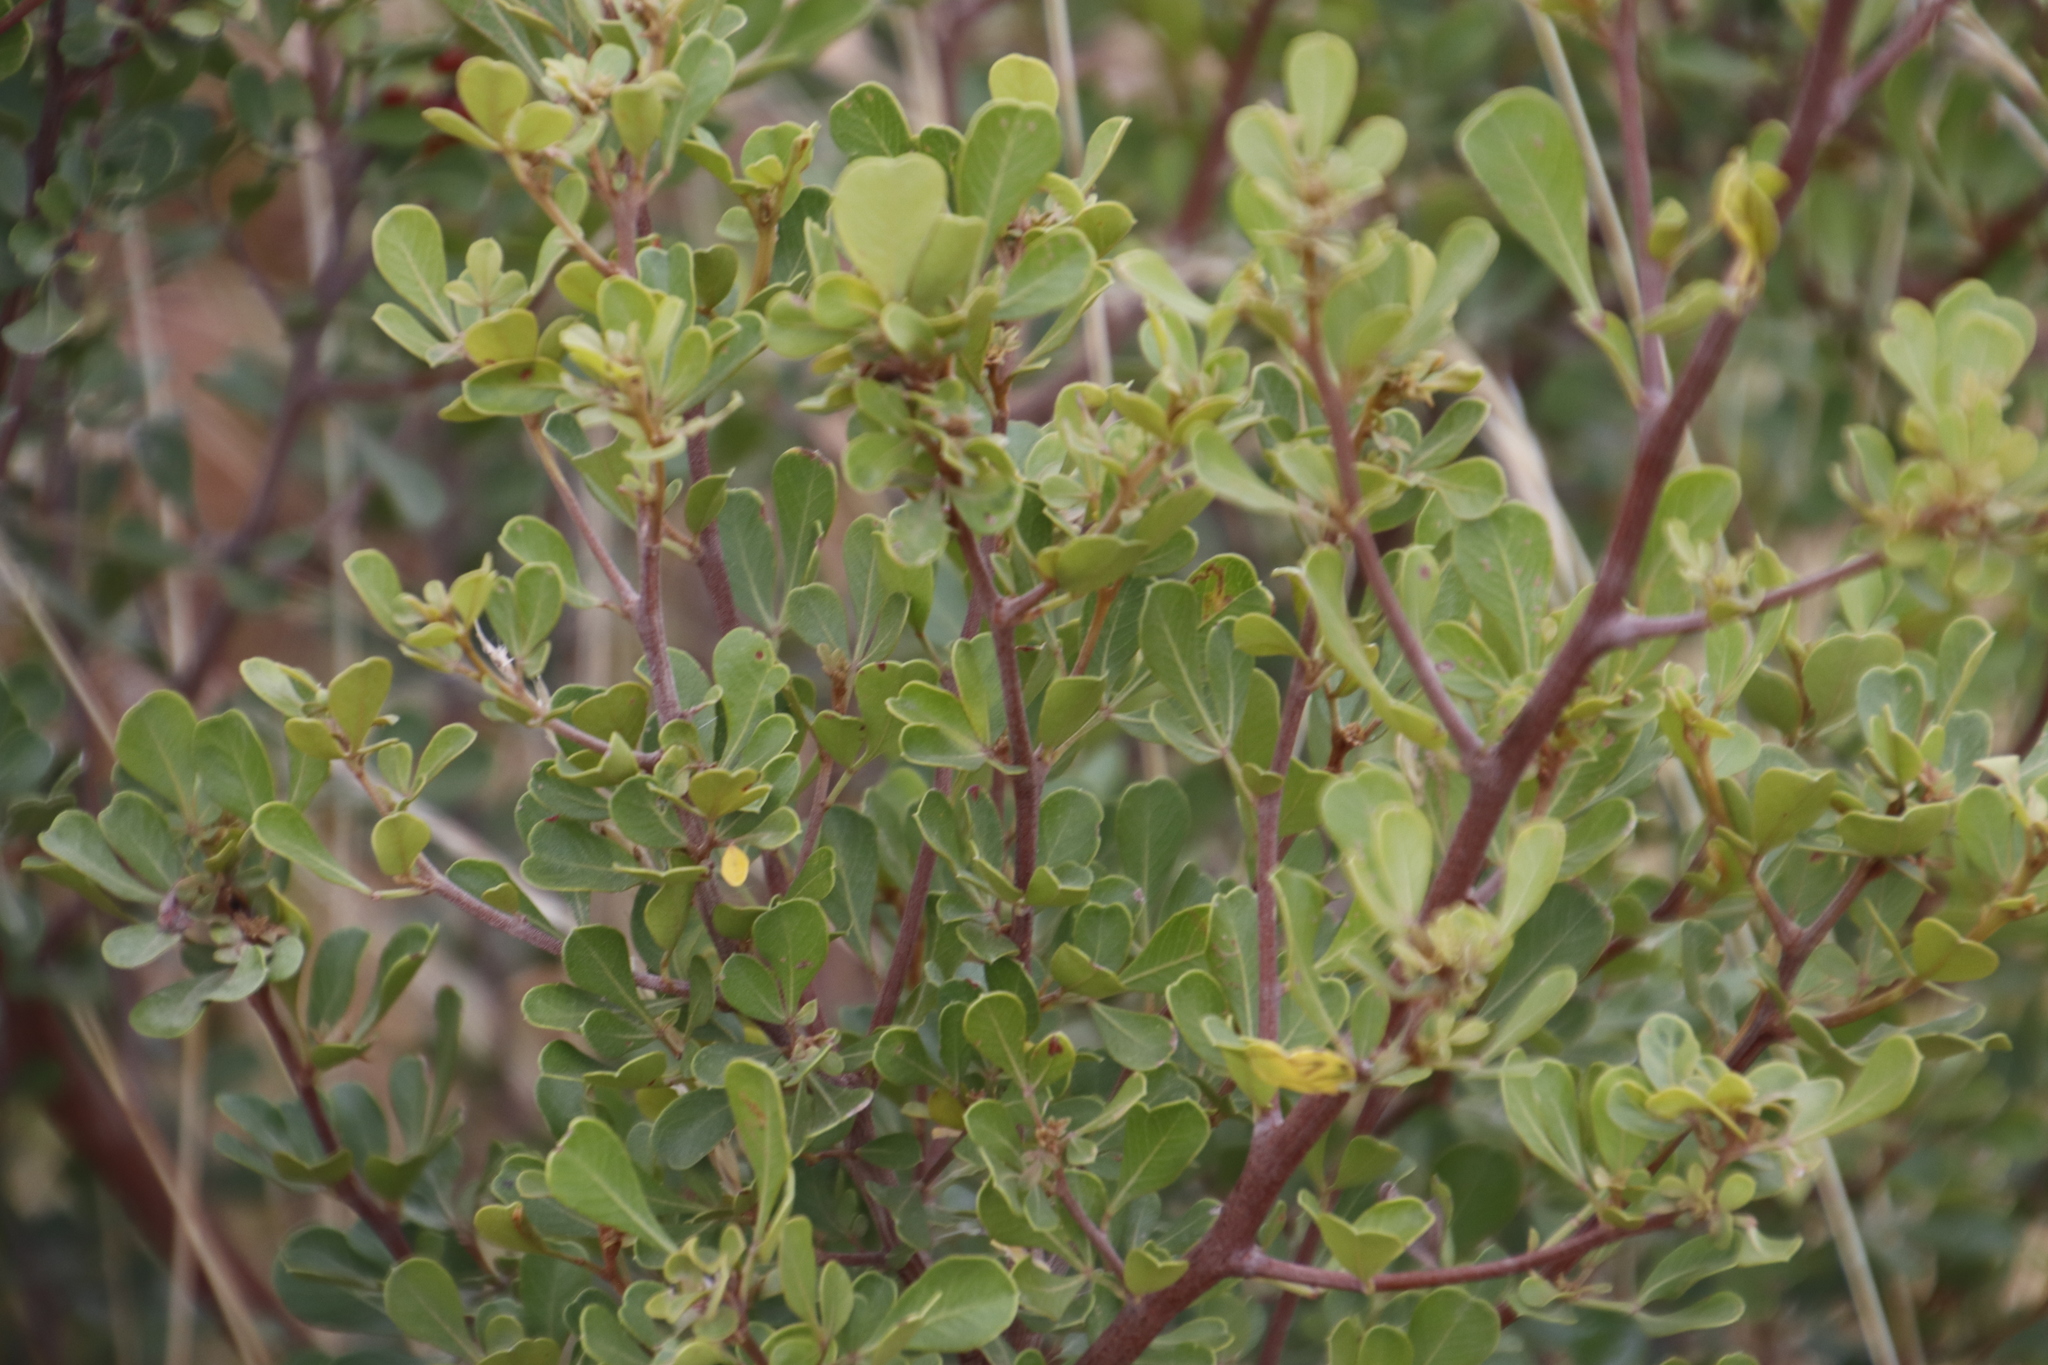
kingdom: Plantae
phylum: Tracheophyta
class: Magnoliopsida
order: Sapindales
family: Anacardiaceae
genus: Searsia
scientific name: Searsia pallens
